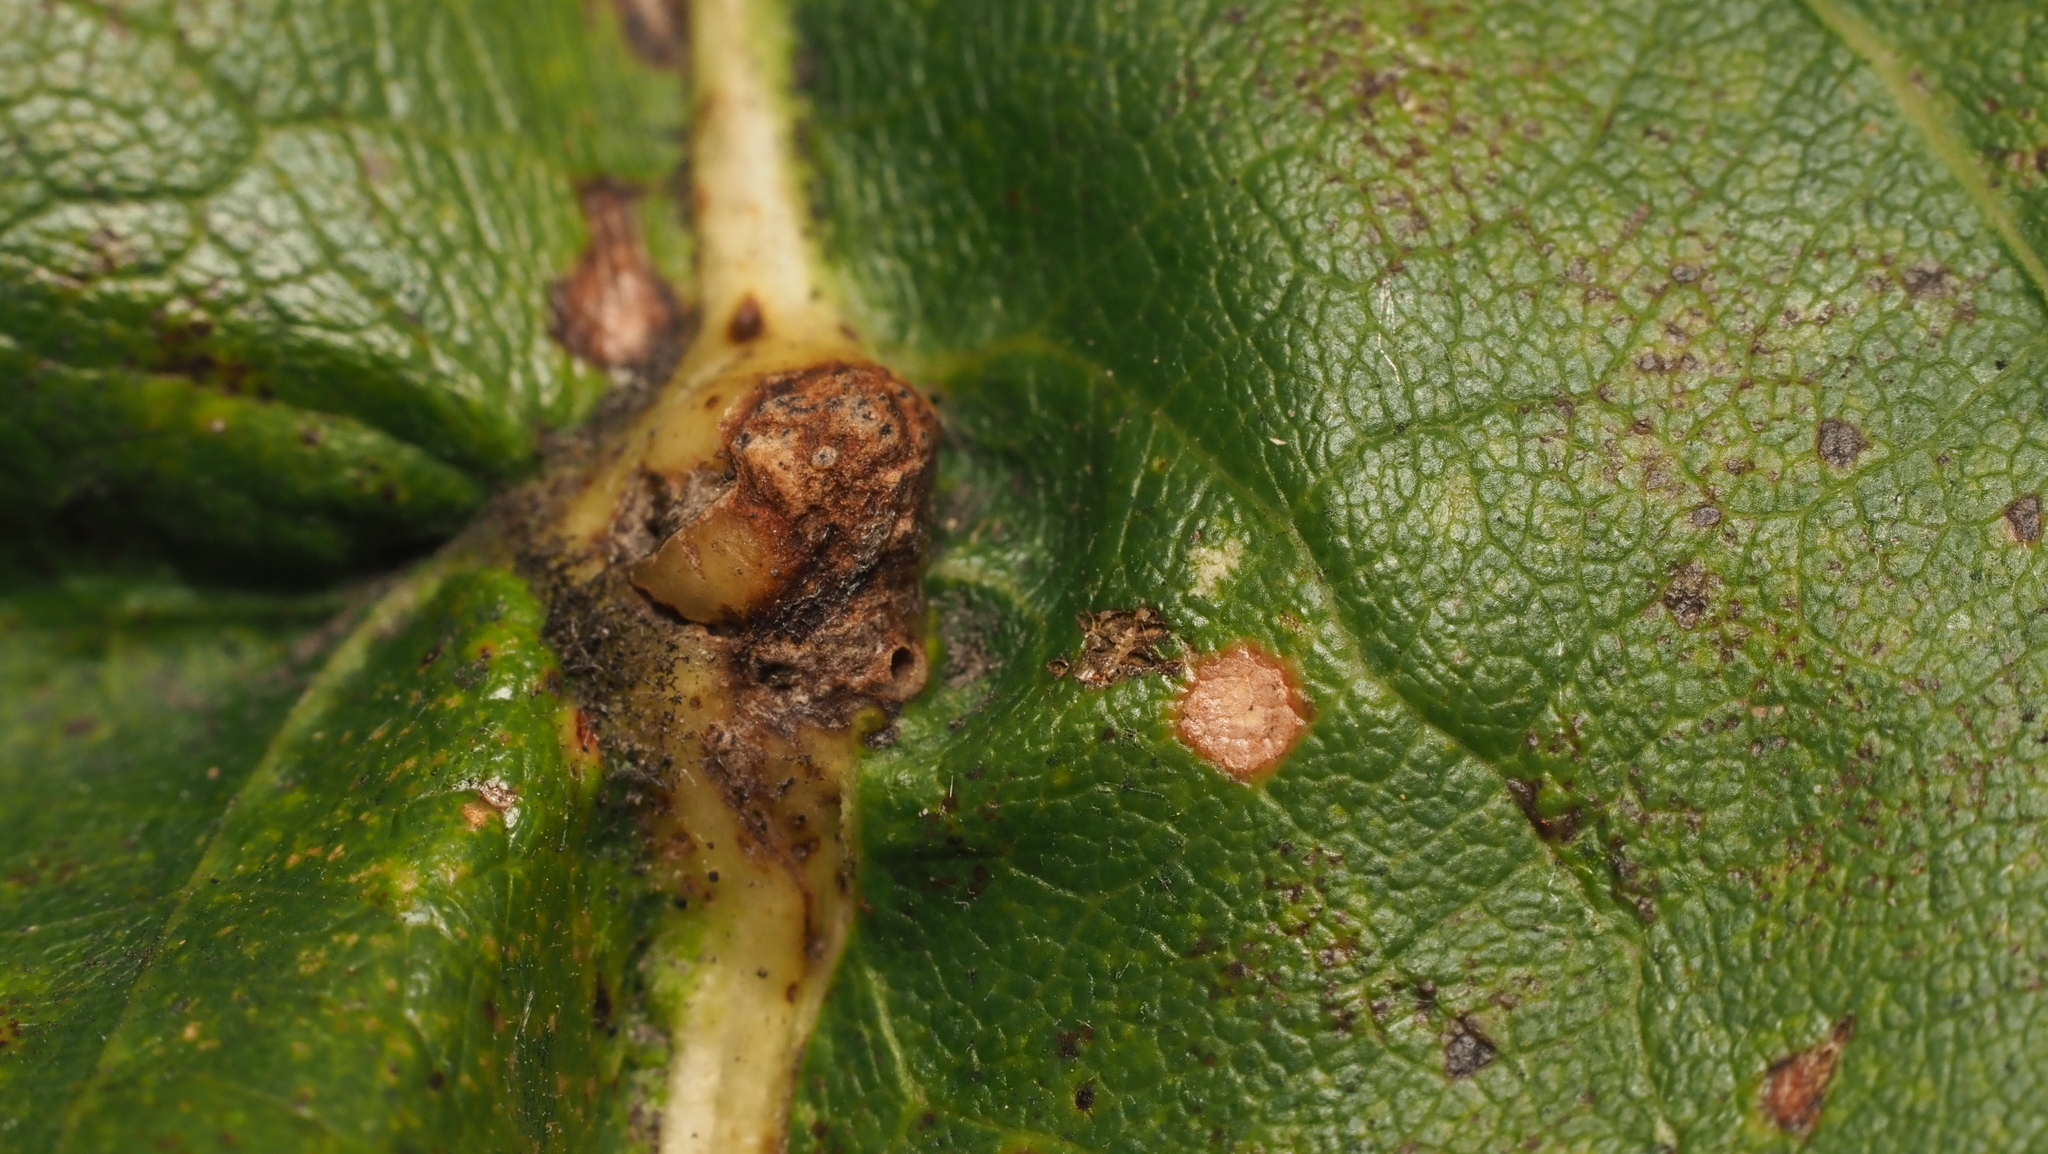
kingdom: Animalia
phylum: Arthropoda
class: Insecta
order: Hymenoptera
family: Cynipidae
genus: Bassettia
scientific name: Bassettia flavipes
